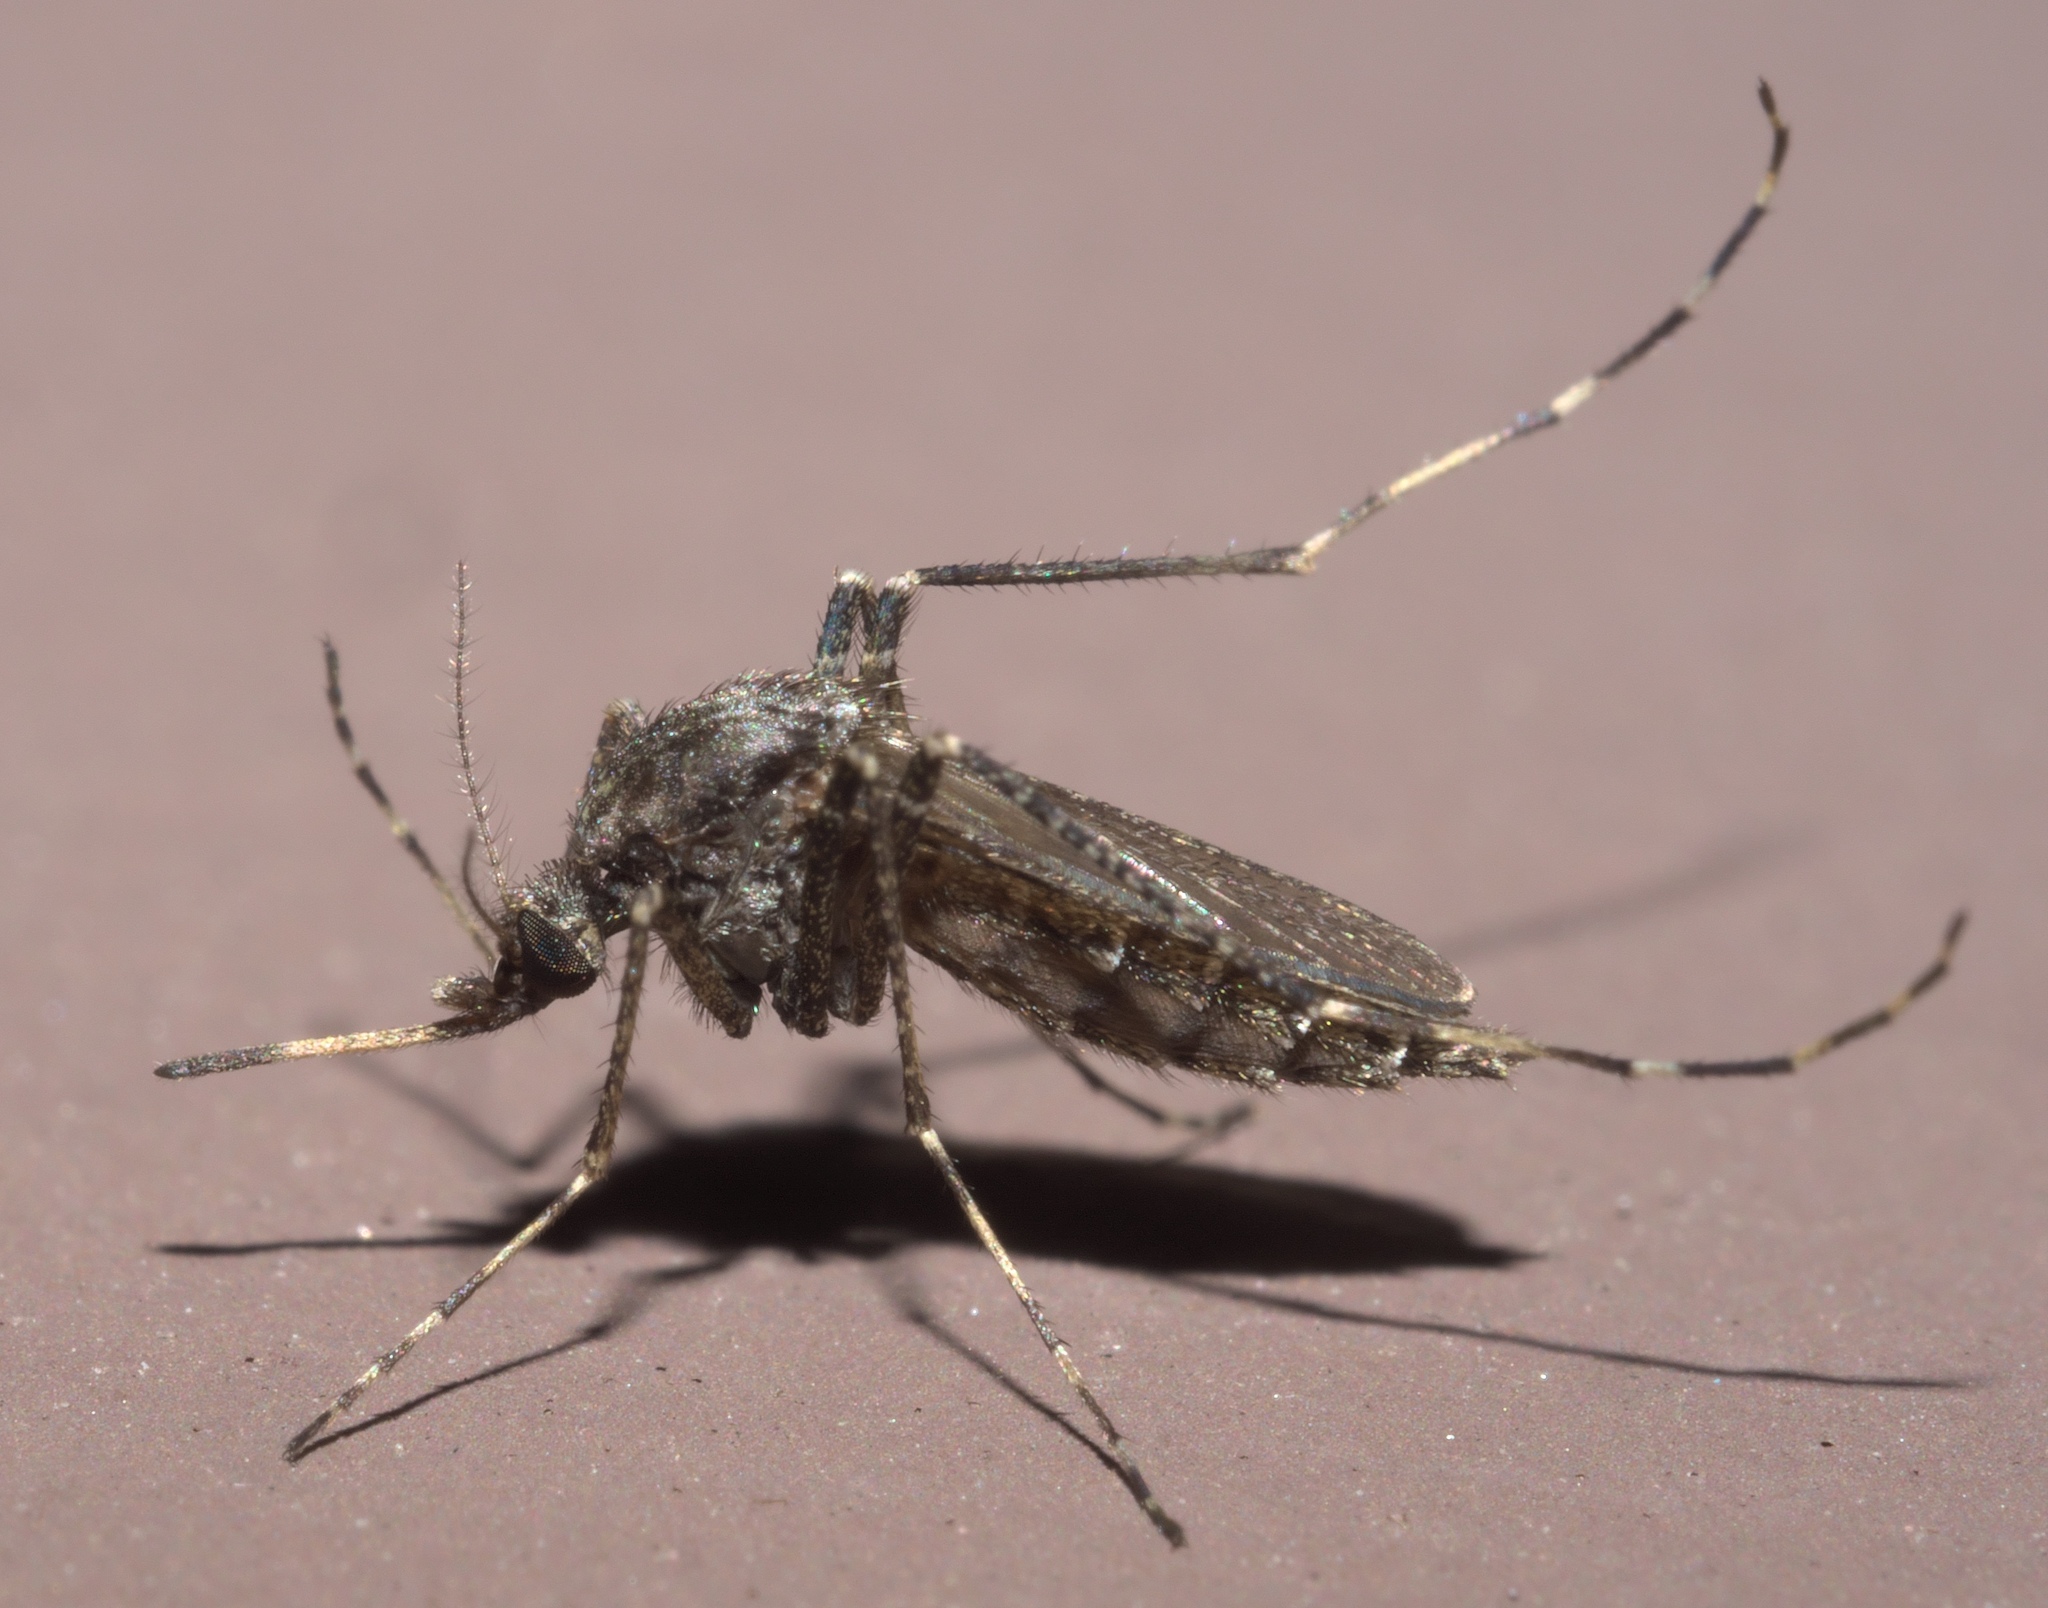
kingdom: Animalia
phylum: Arthropoda
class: Insecta
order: Diptera
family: Culicidae
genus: Psorophora
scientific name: Psorophora columbiae
